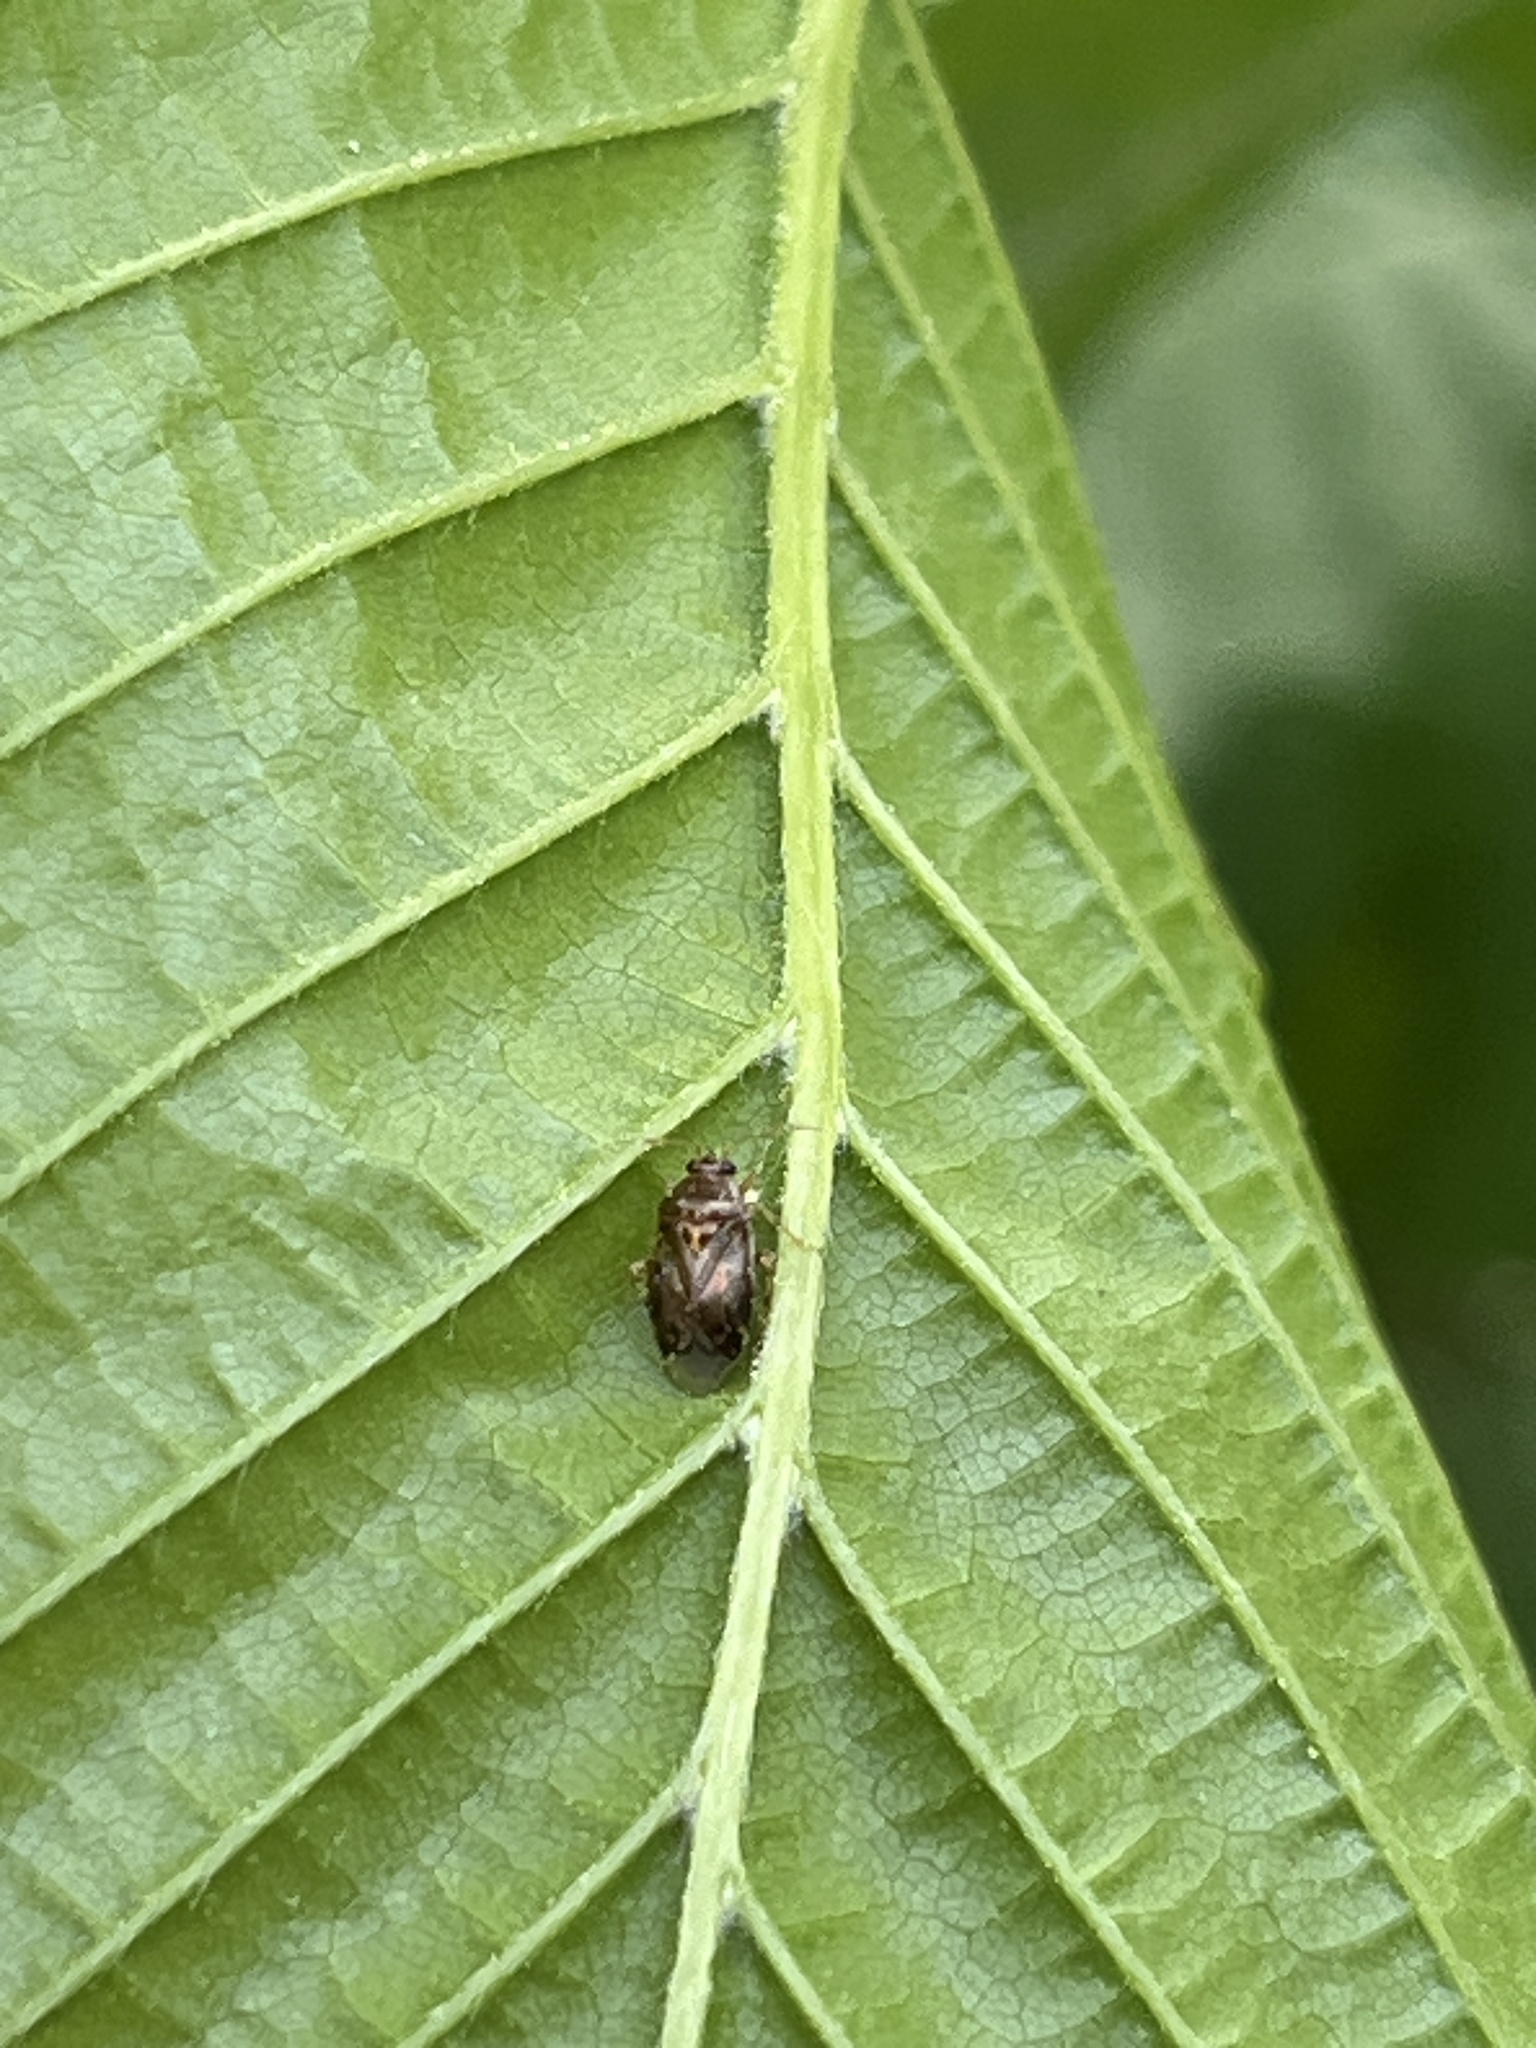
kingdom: Animalia
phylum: Arthropoda
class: Insecta
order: Hemiptera
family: Miridae
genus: Deraeocoris
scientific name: Deraeocoris lutescens
